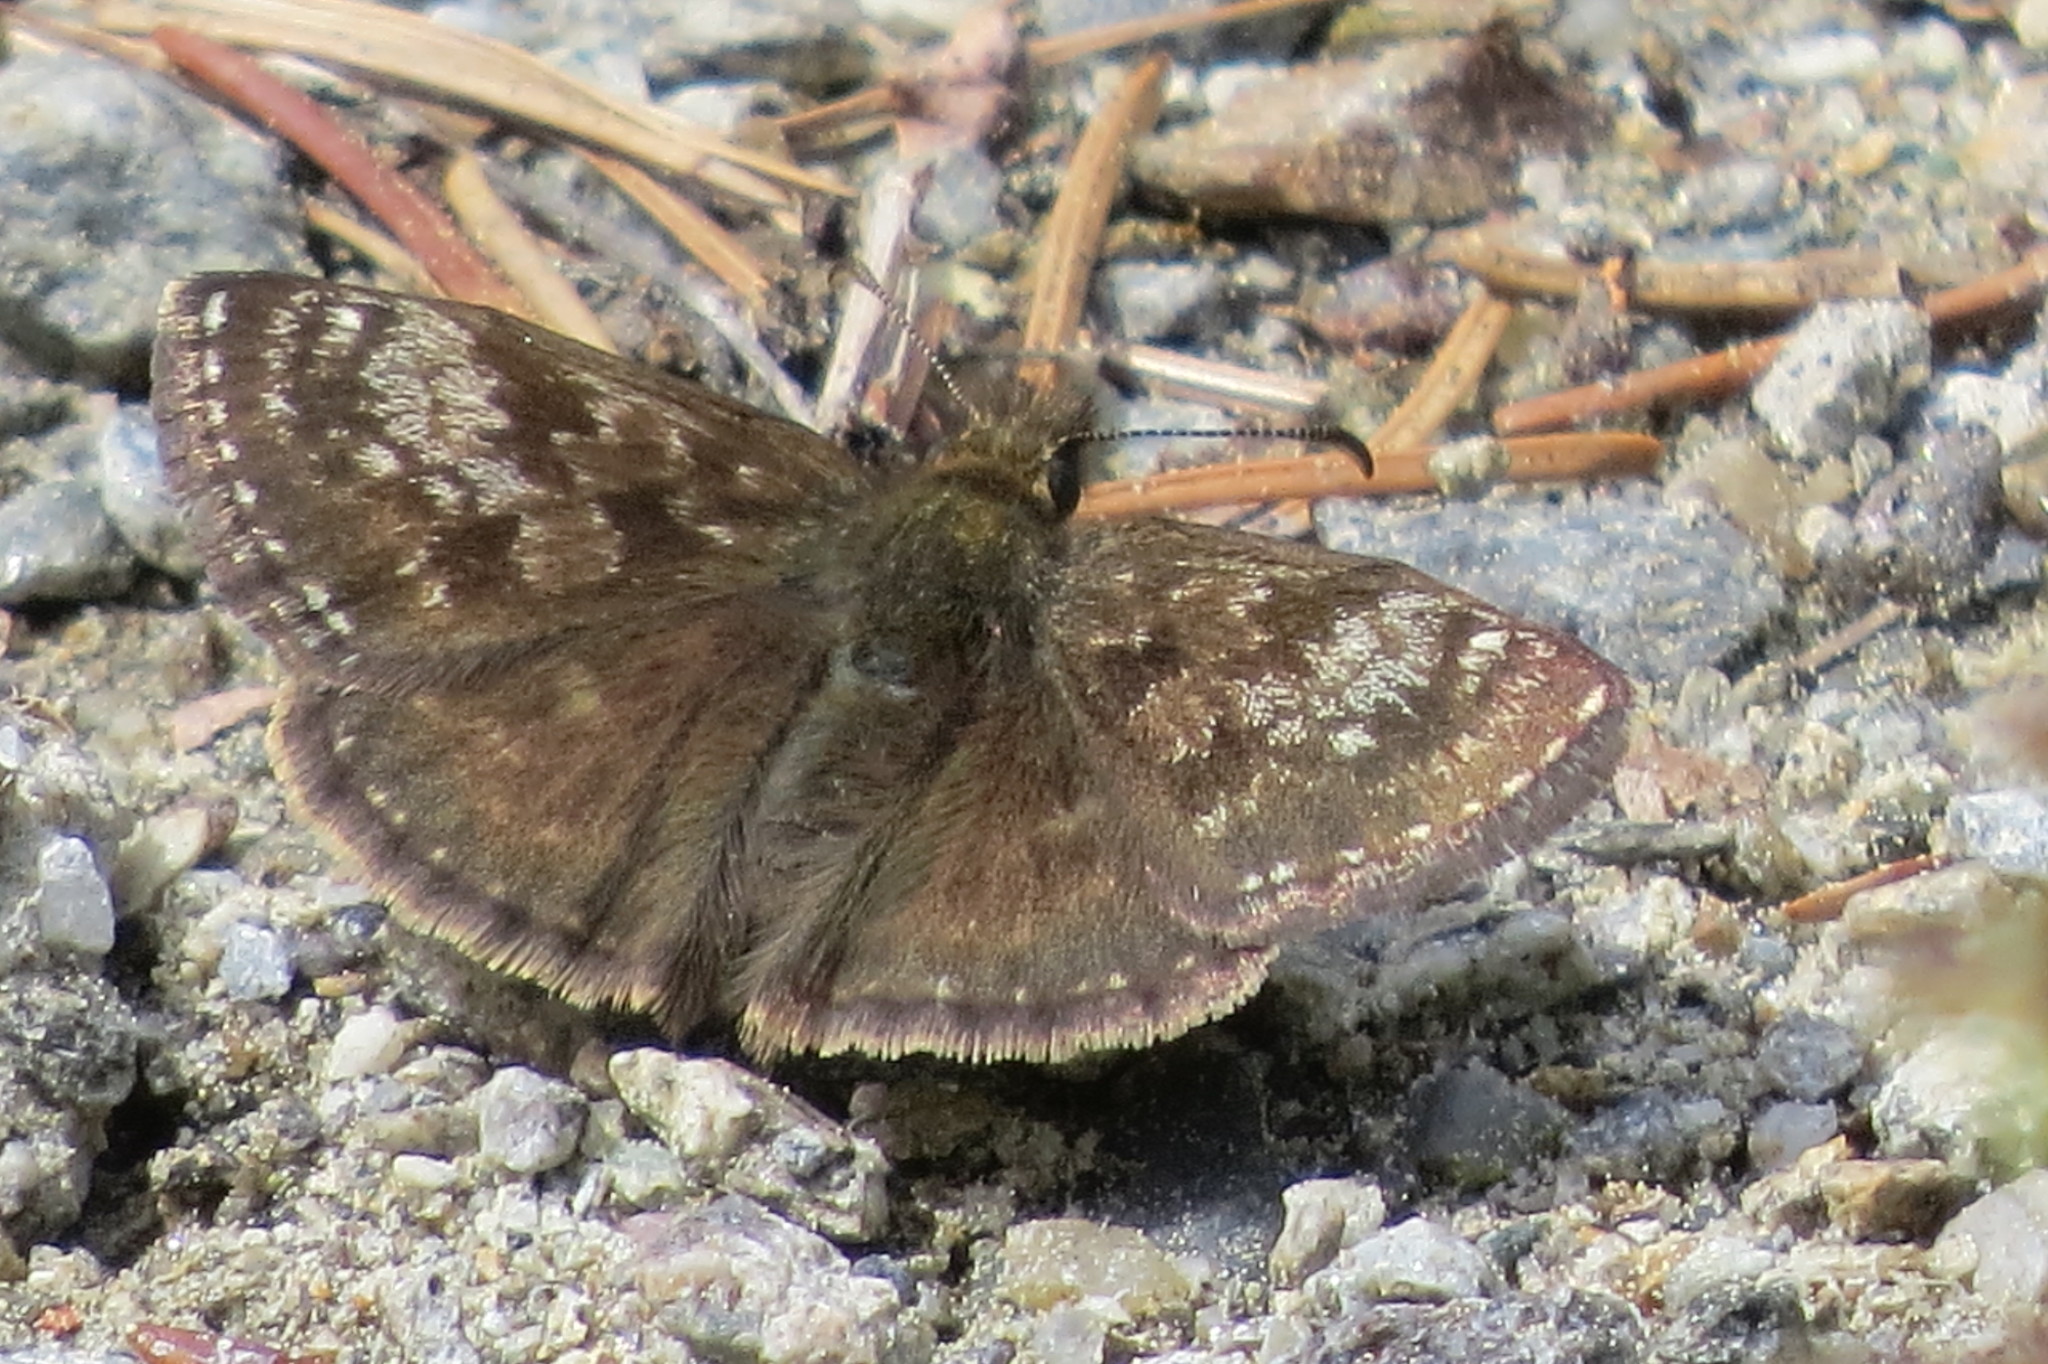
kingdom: Animalia
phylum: Arthropoda
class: Insecta
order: Lepidoptera
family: Hesperiidae
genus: Erynnis
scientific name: Erynnis tages
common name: Dingy skipper
